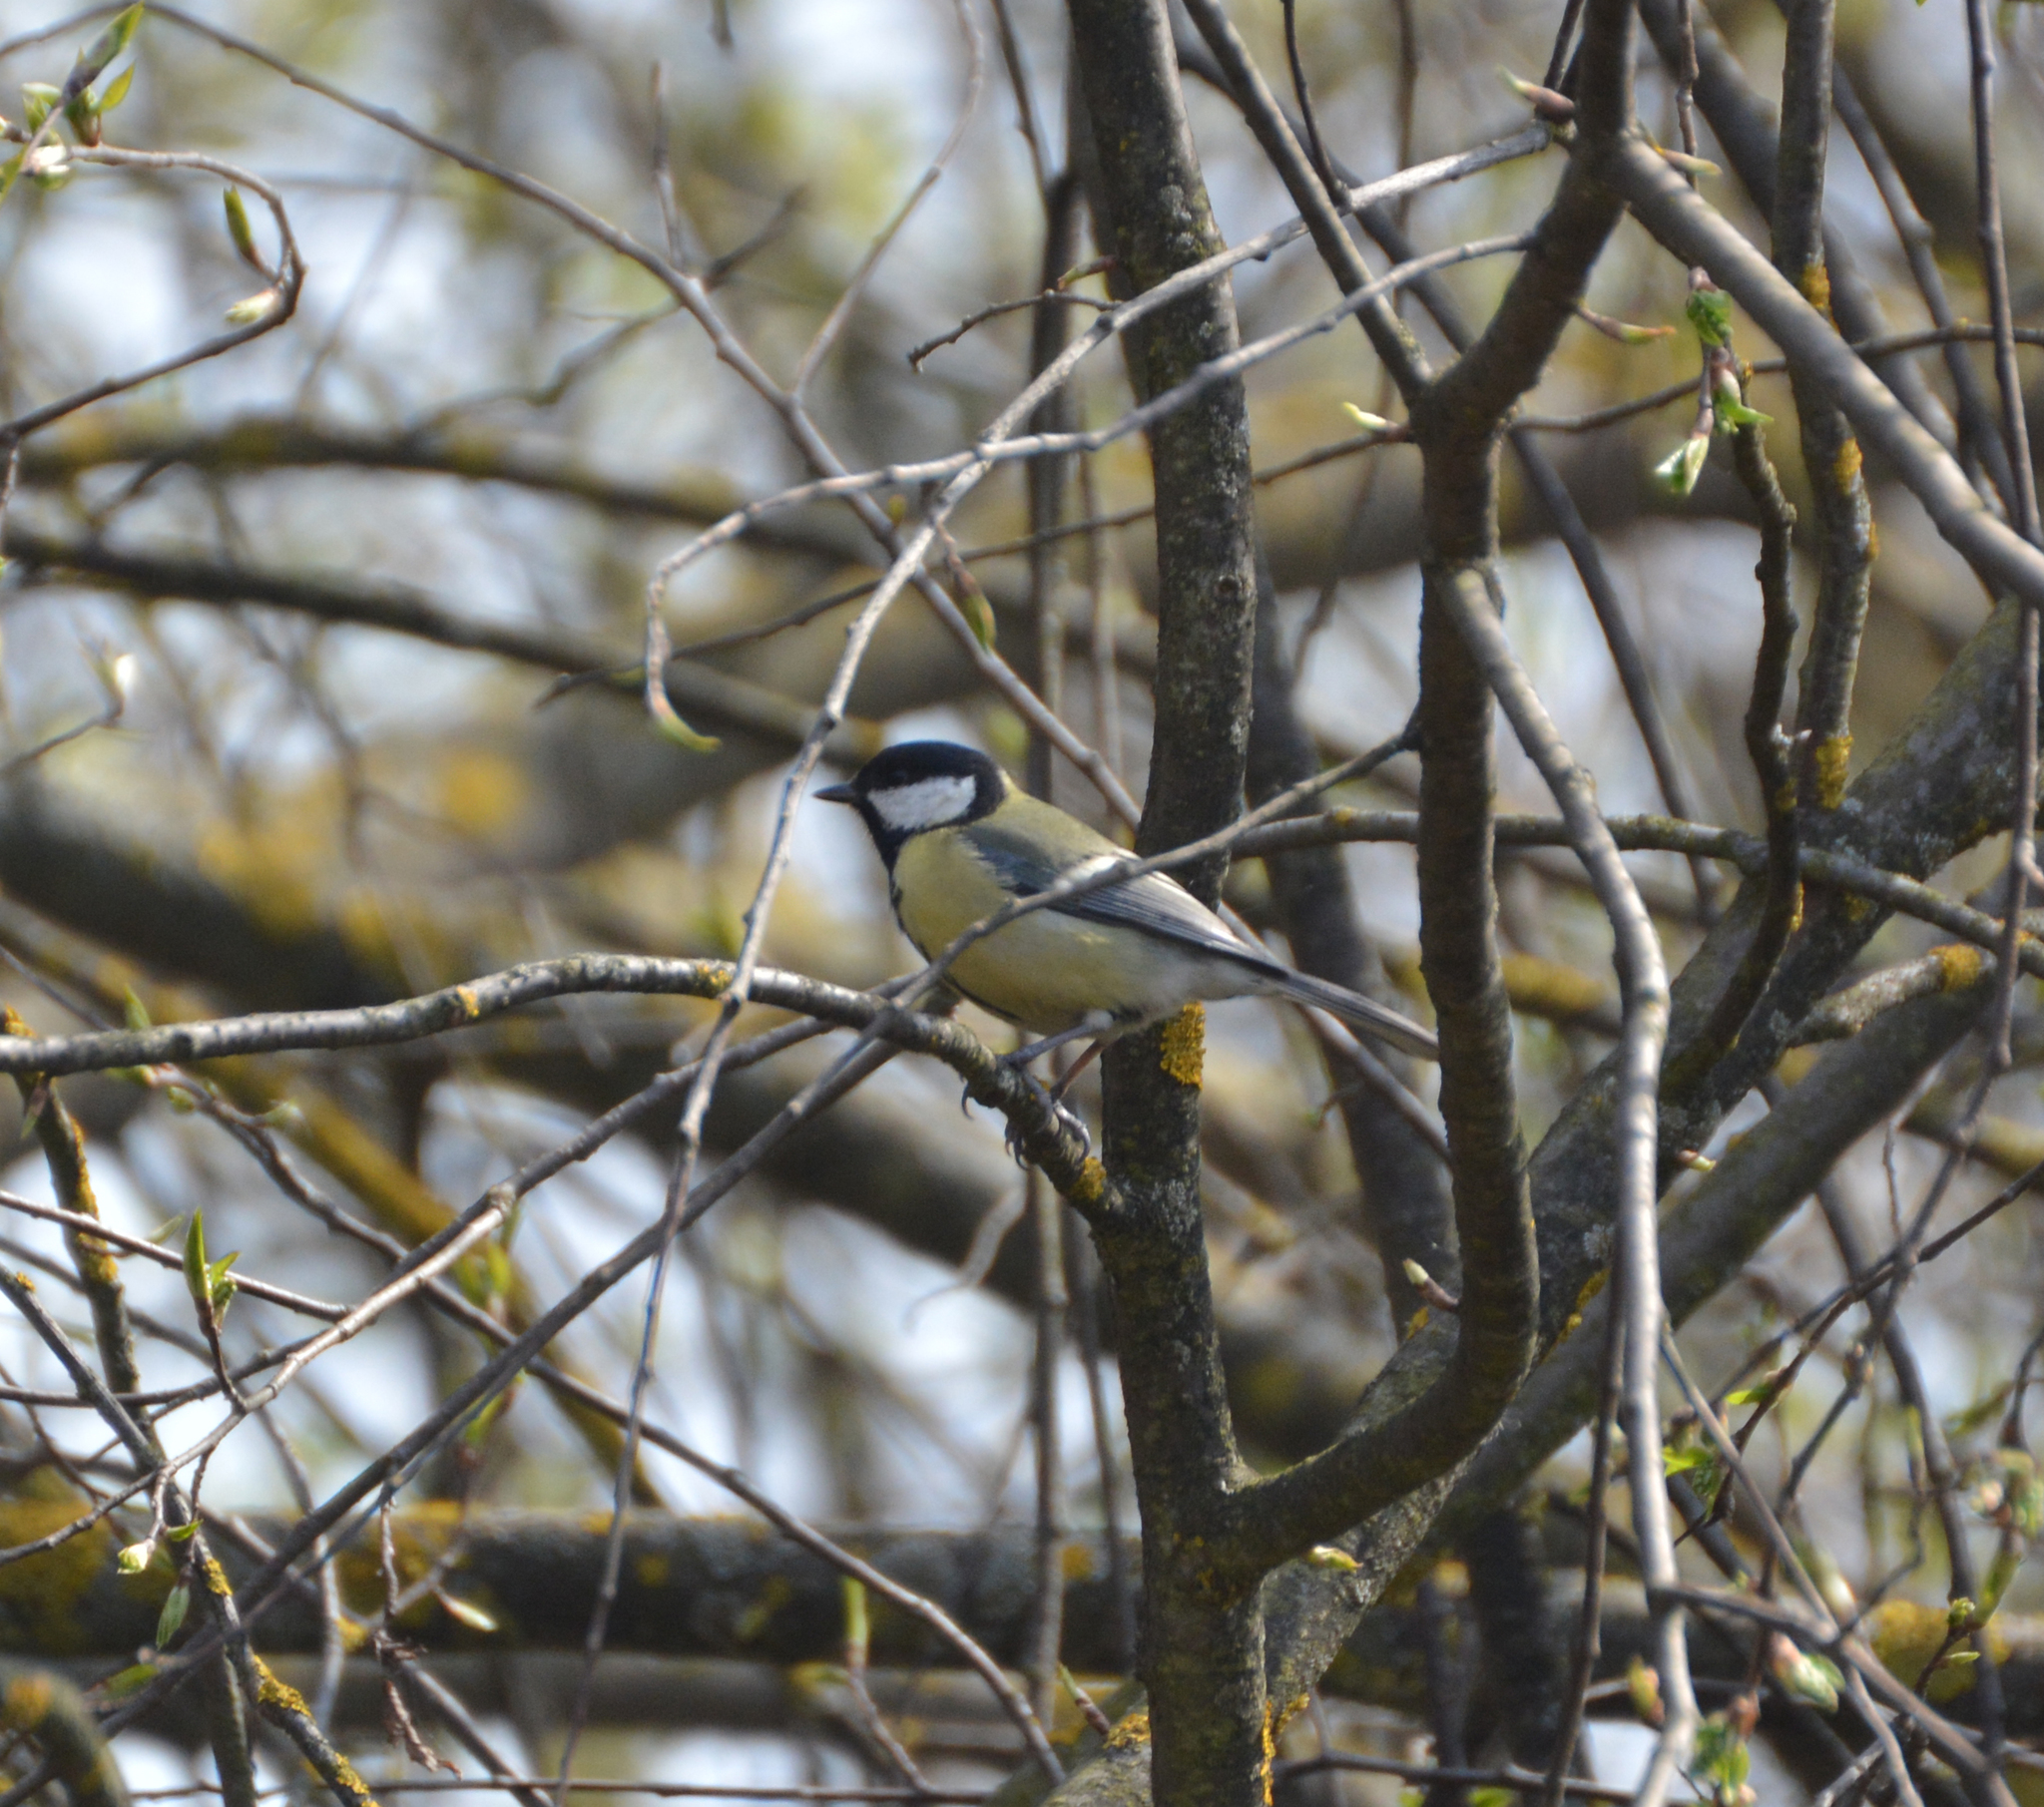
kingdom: Animalia
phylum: Chordata
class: Aves
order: Passeriformes
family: Paridae
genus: Parus
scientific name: Parus major
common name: Great tit
